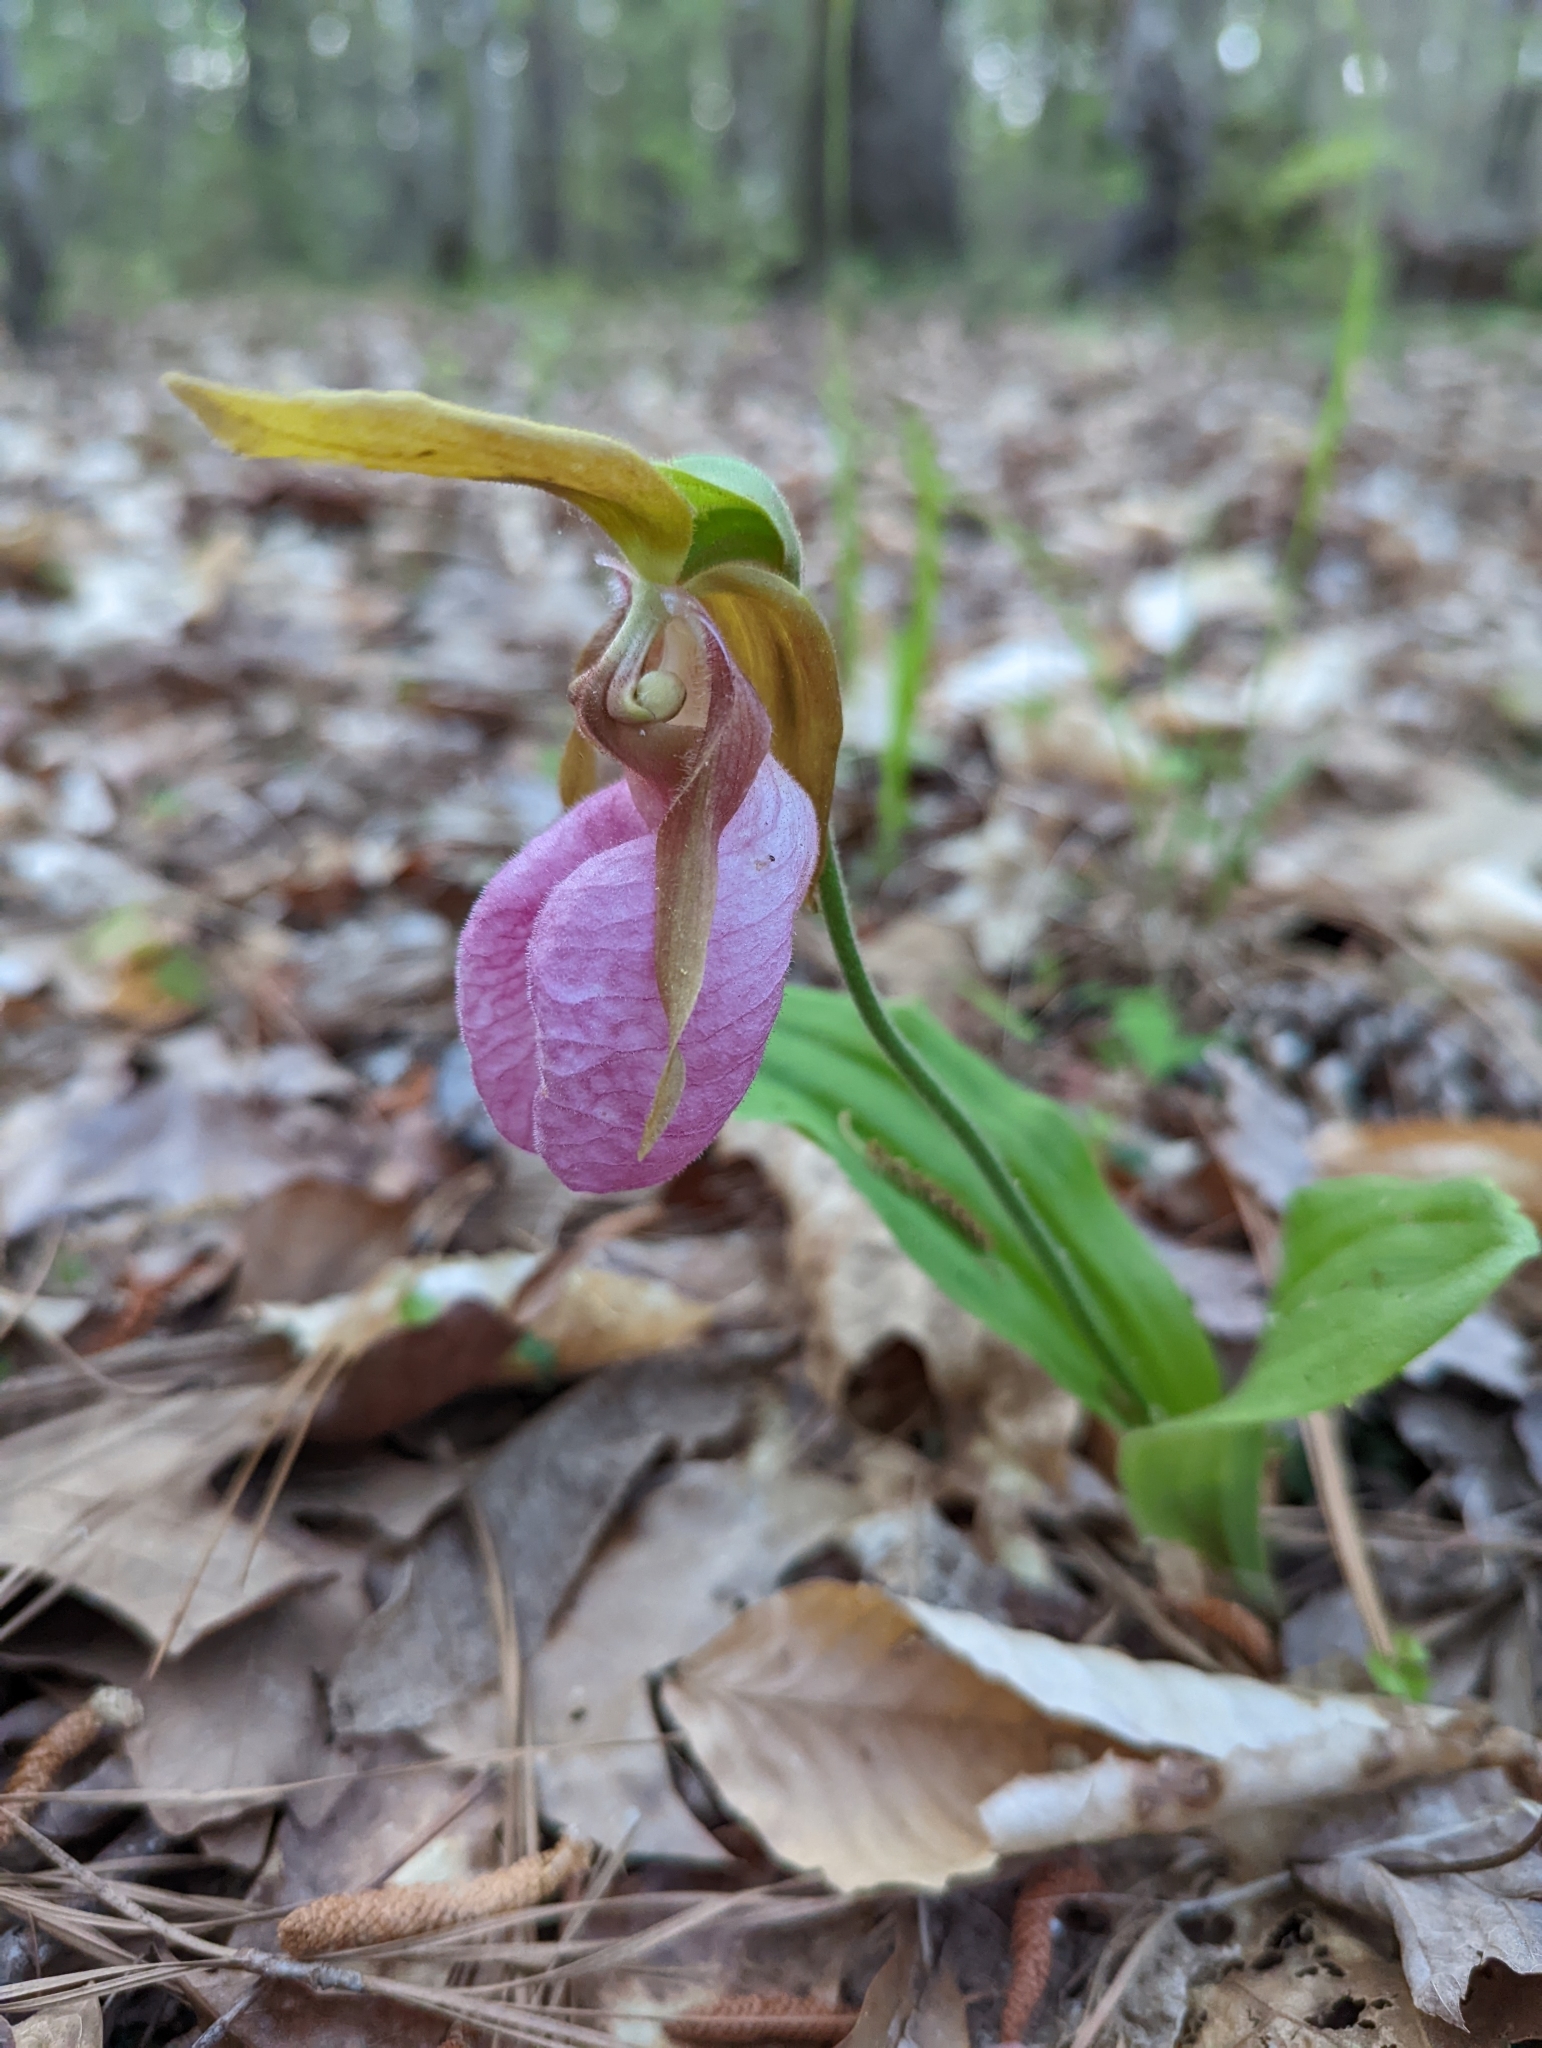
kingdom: Plantae
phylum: Tracheophyta
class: Liliopsida
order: Asparagales
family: Orchidaceae
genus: Cypripedium
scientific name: Cypripedium acaule
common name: Pink lady's-slipper
